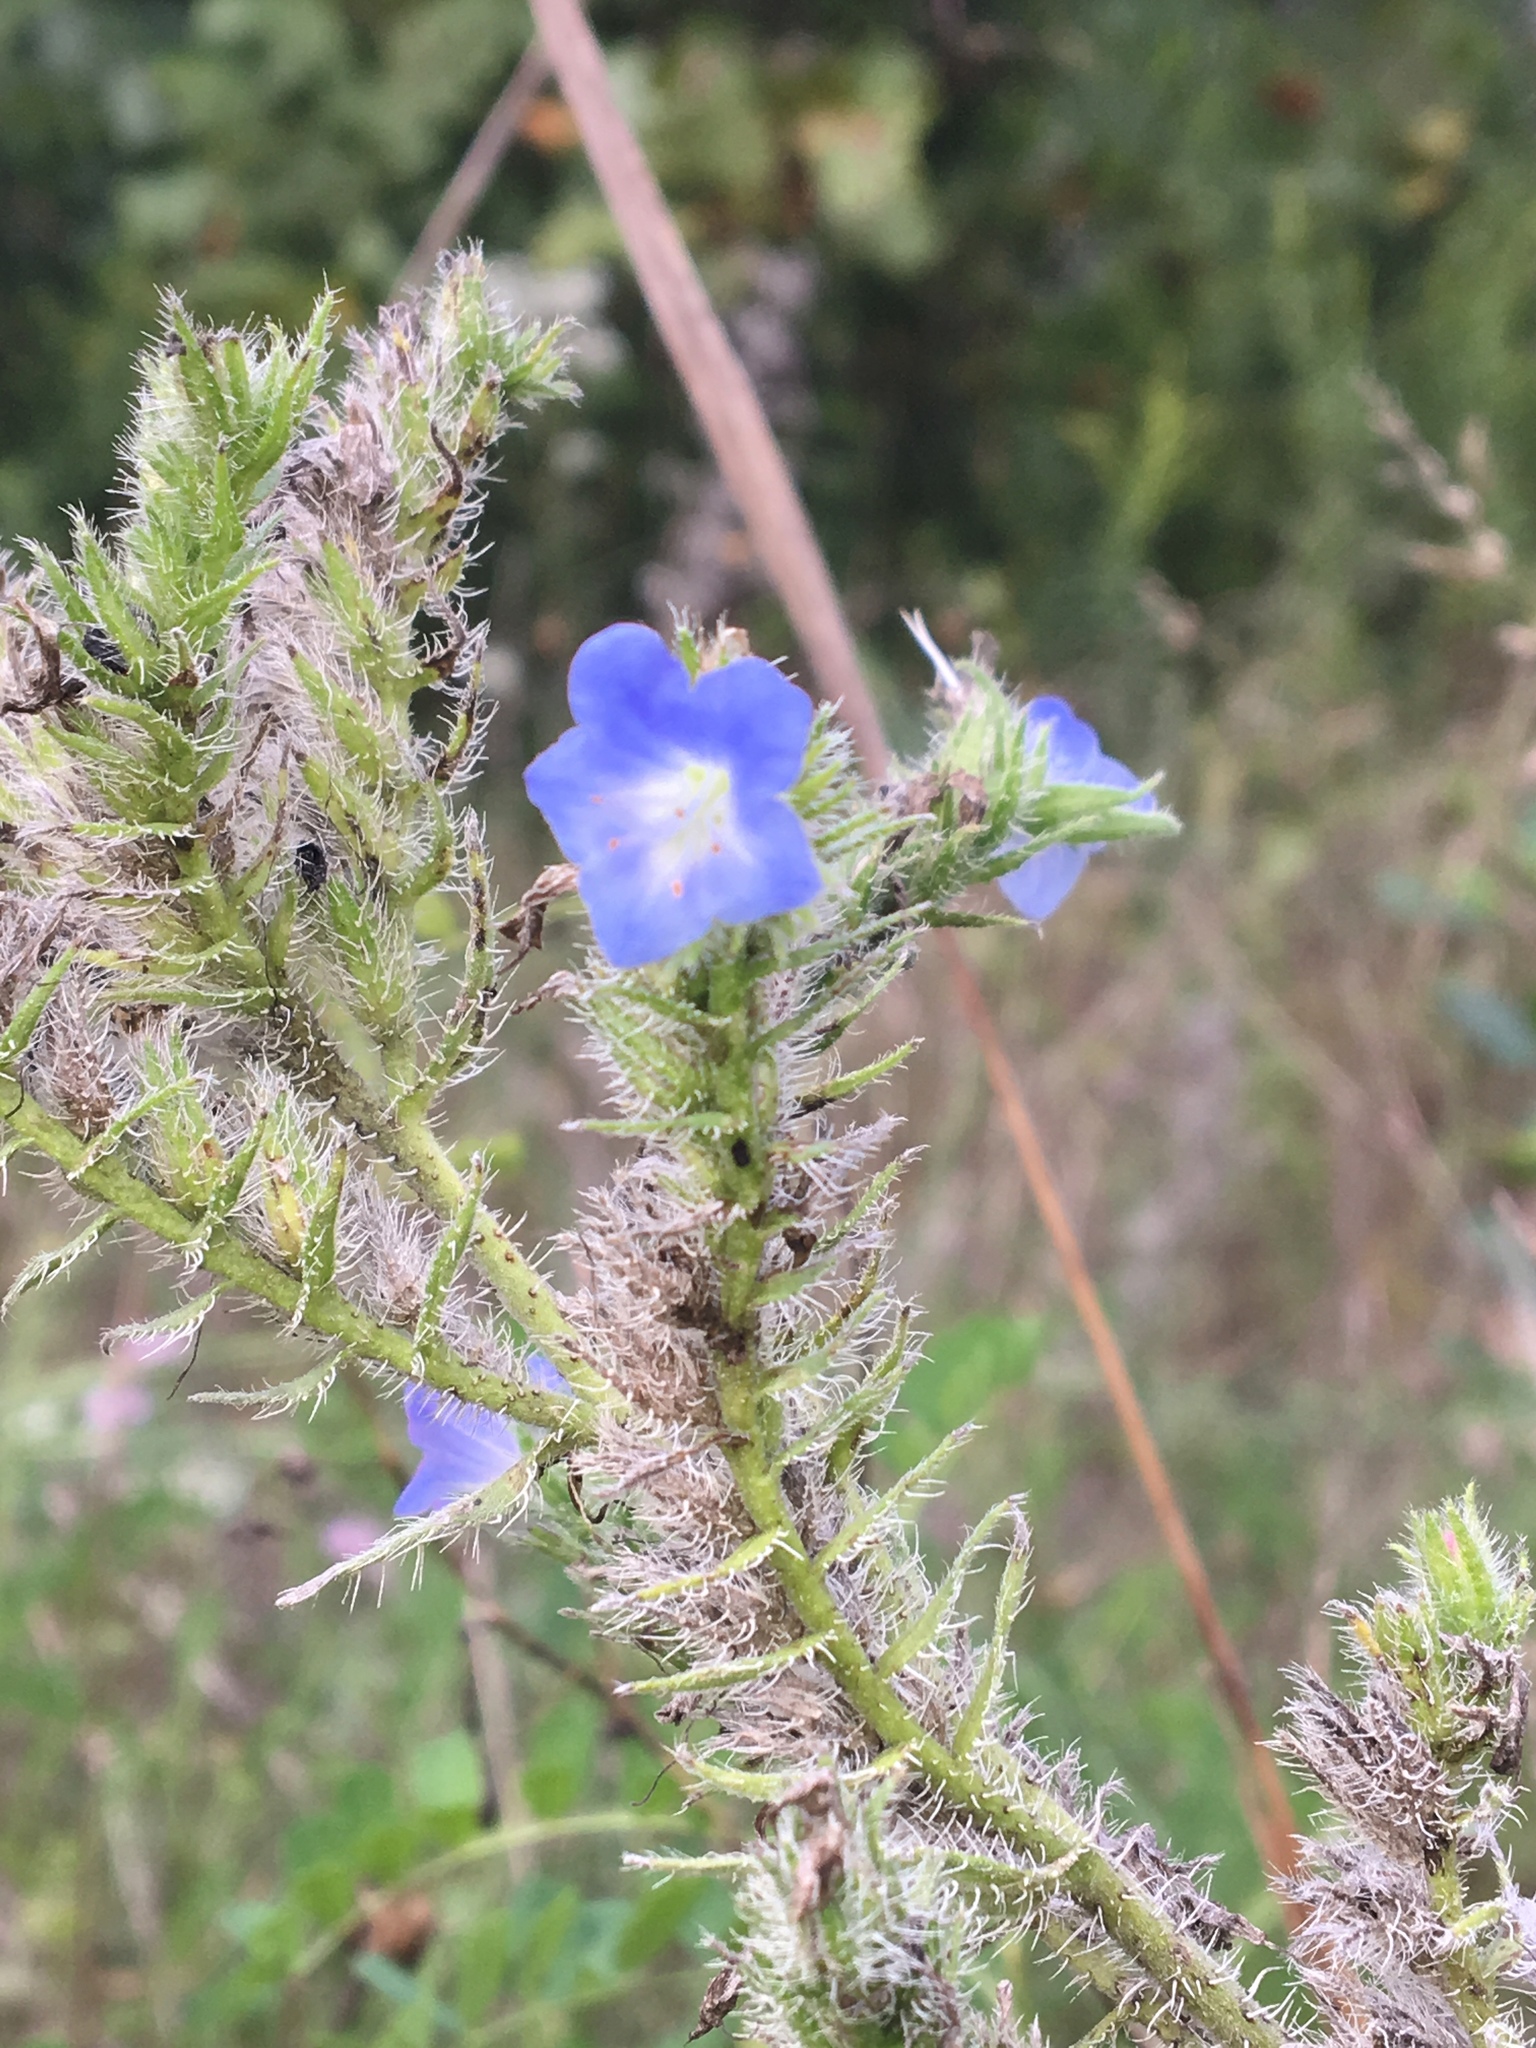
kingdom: Plantae
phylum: Tracheophyta
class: Magnoliopsida
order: Boraginales
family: Boraginaceae
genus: Echium
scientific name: Echium vulgare
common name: Common viper's bugloss
